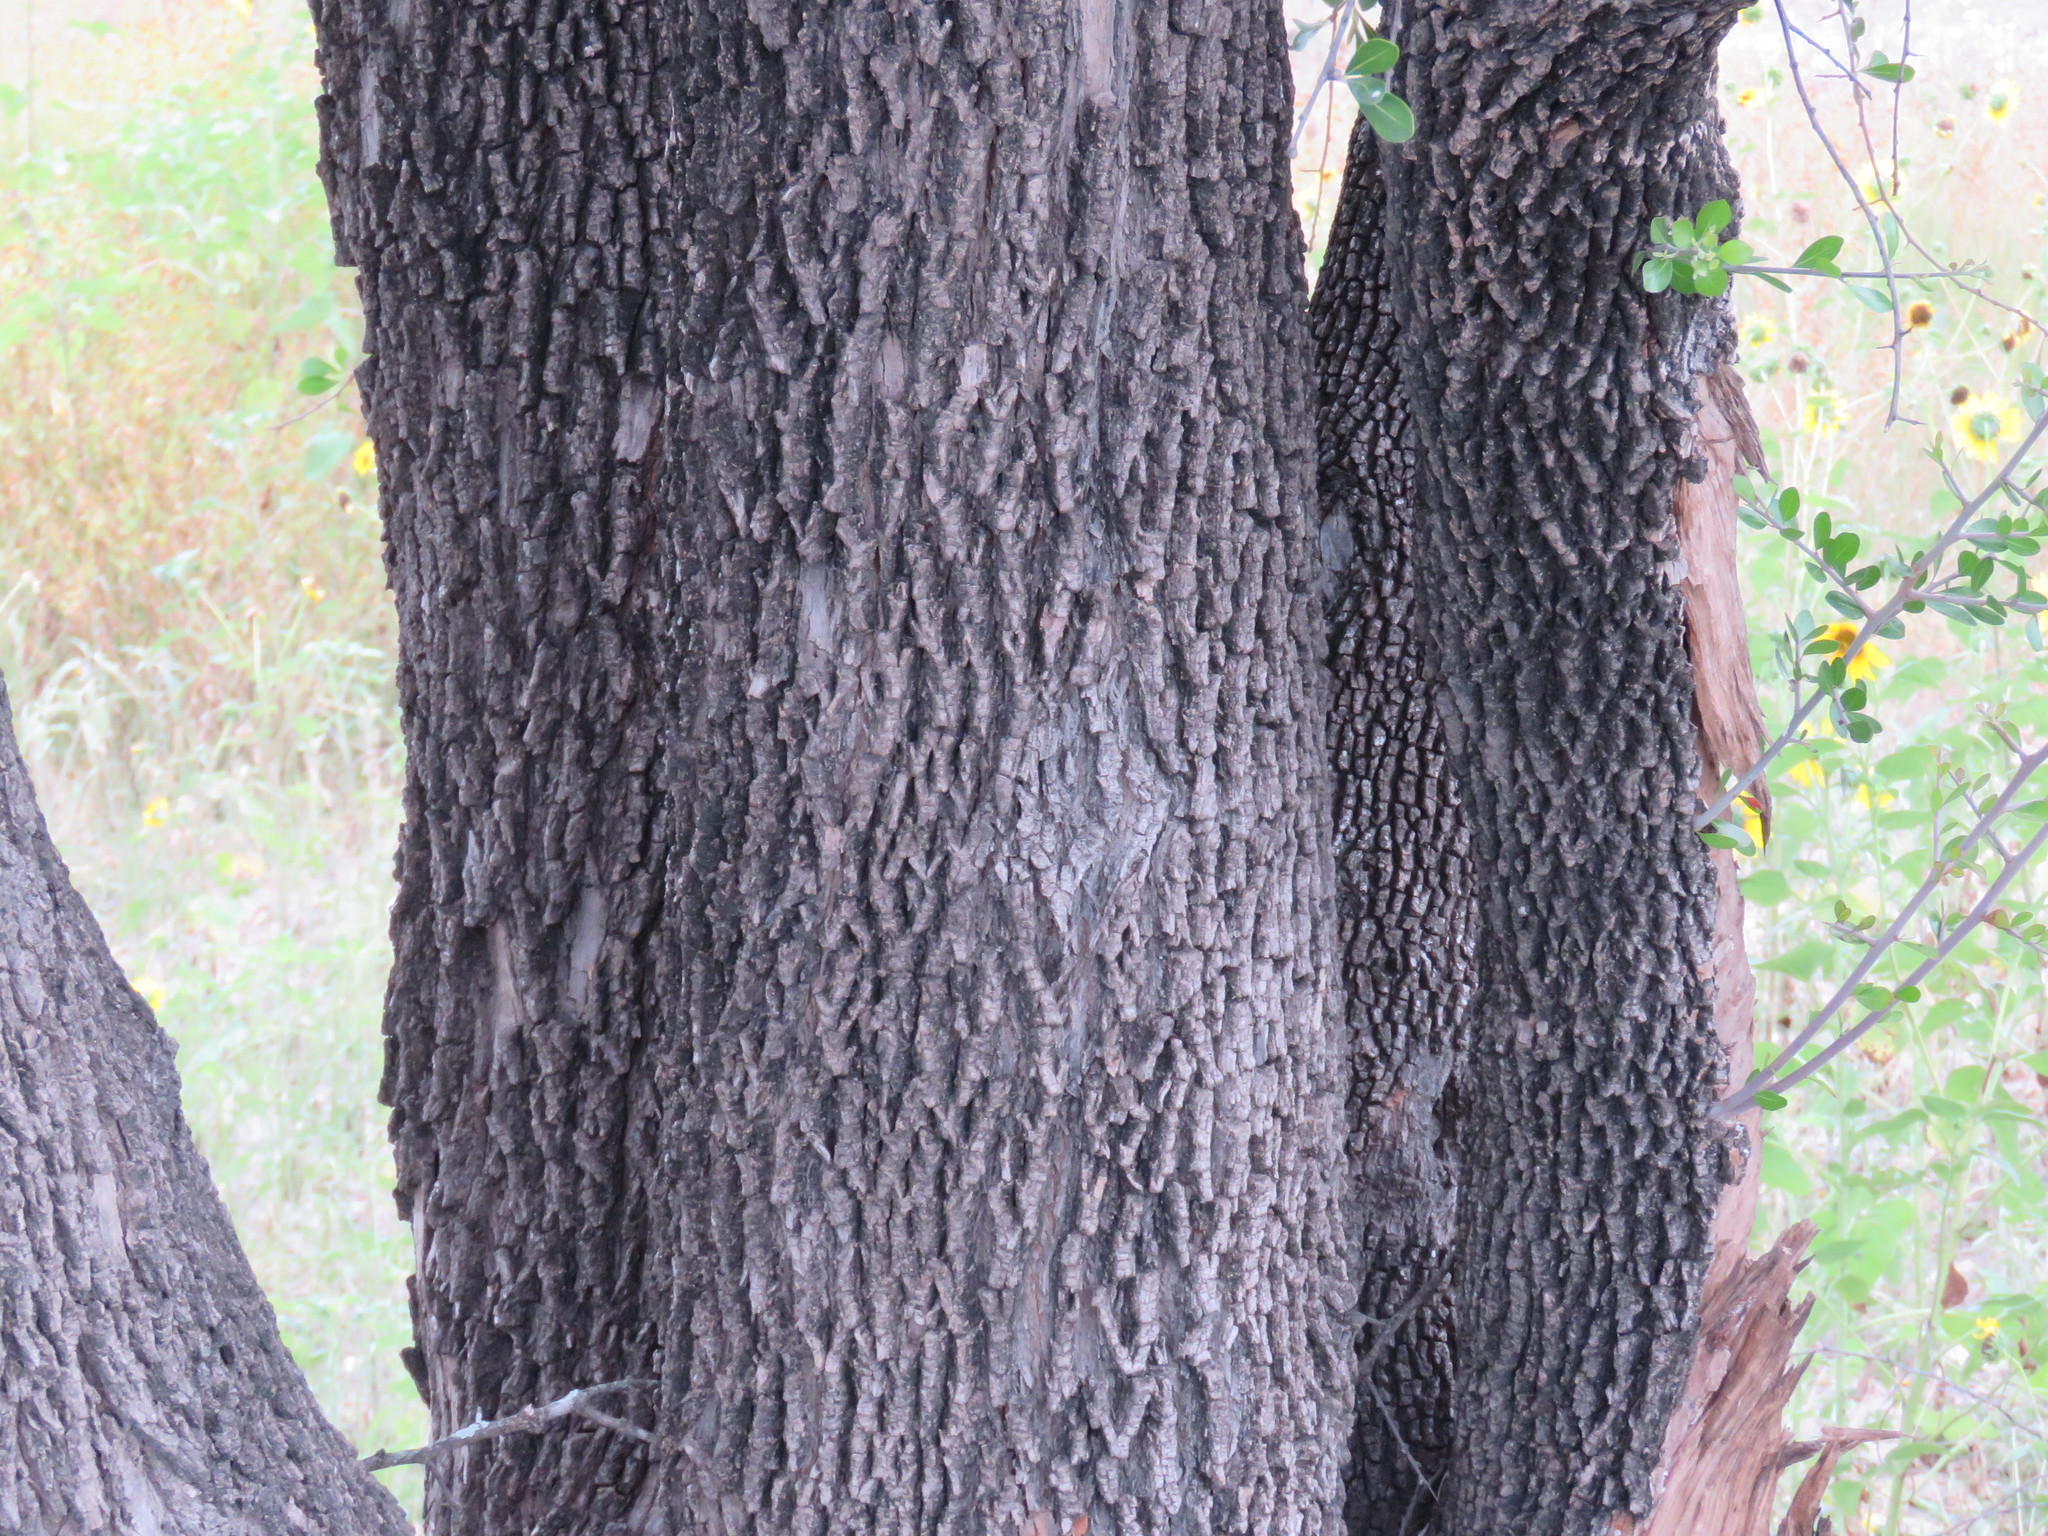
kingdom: Plantae
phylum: Tracheophyta
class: Magnoliopsida
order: Ericales
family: Sapotaceae
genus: Sideroxylon
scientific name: Sideroxylon celastrinum
